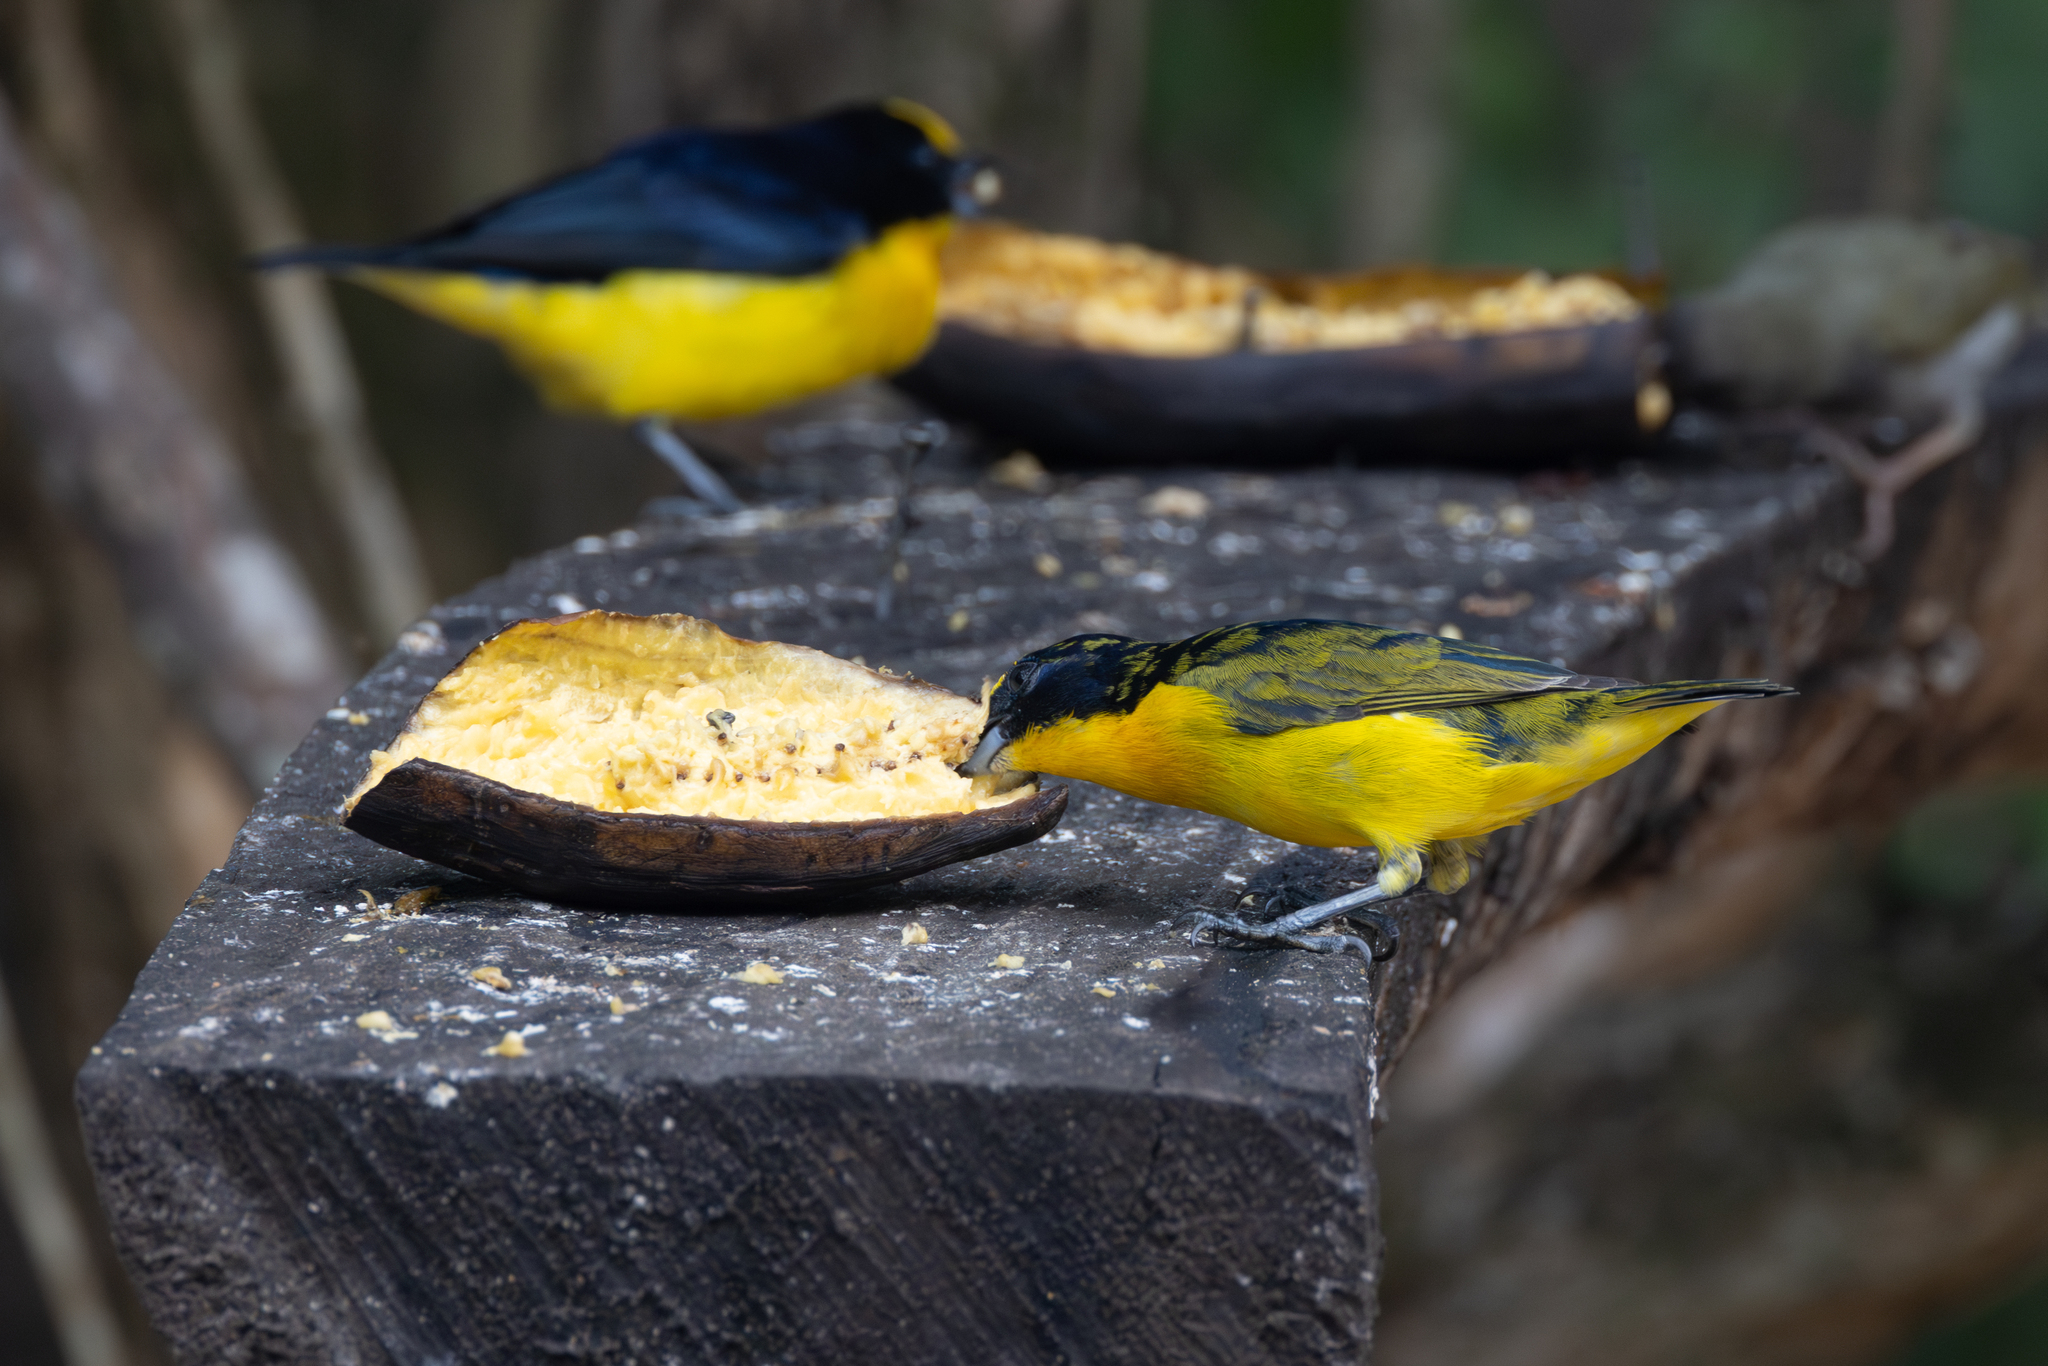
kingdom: Animalia
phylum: Chordata
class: Aves
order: Passeriformes
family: Fringillidae
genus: Euphonia
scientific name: Euphonia laniirostris
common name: Thick-billed euphonia
